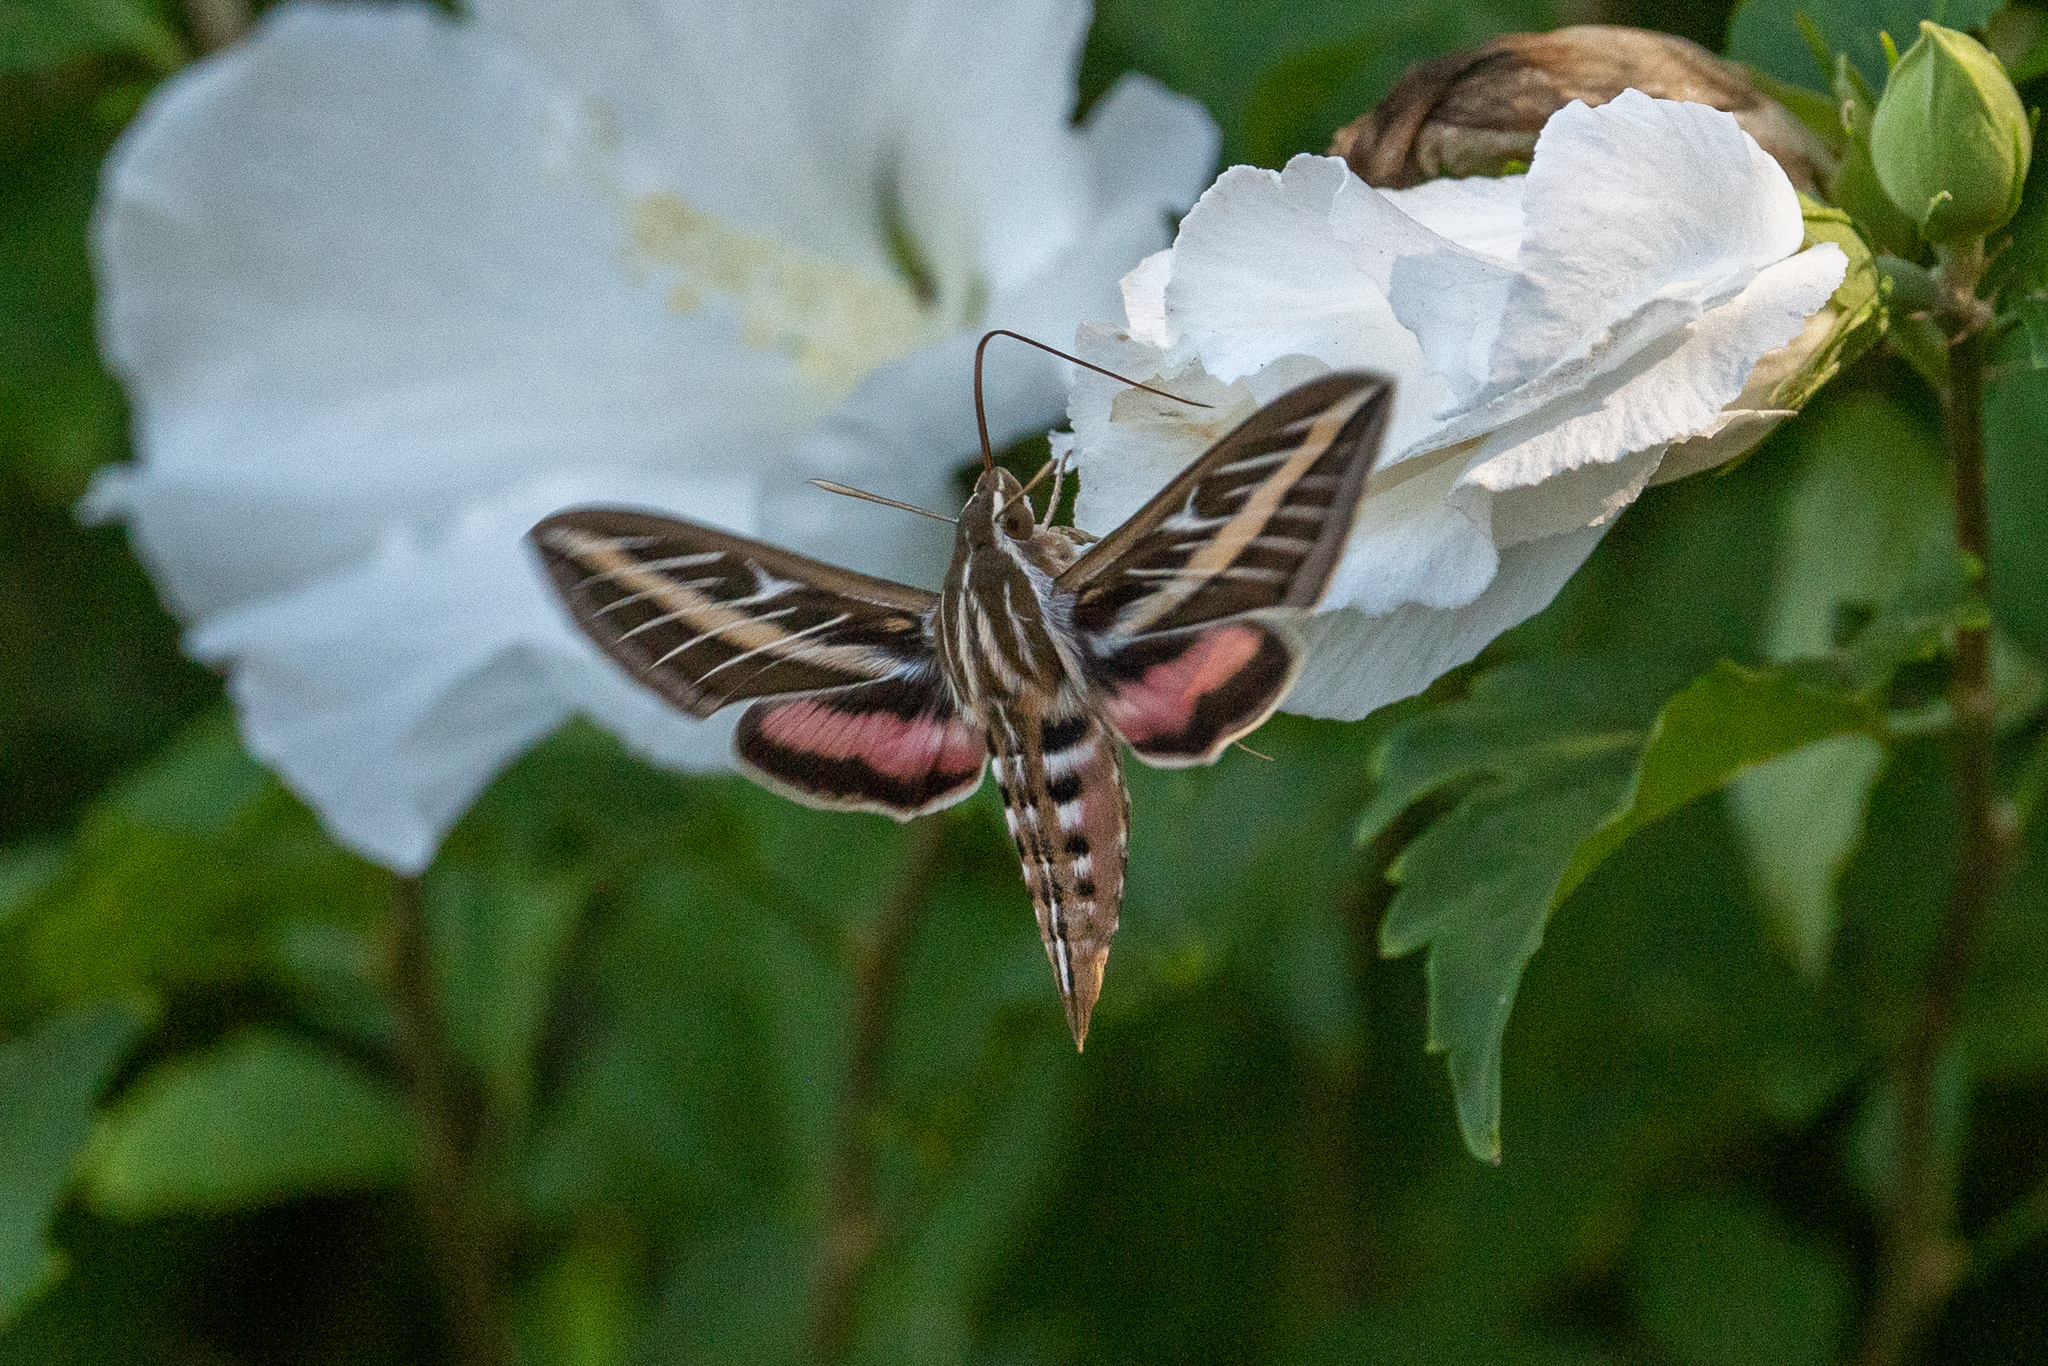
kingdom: Animalia
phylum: Arthropoda
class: Insecta
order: Lepidoptera
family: Sphingidae
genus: Hyles
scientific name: Hyles lineata
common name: White-lined sphinx
